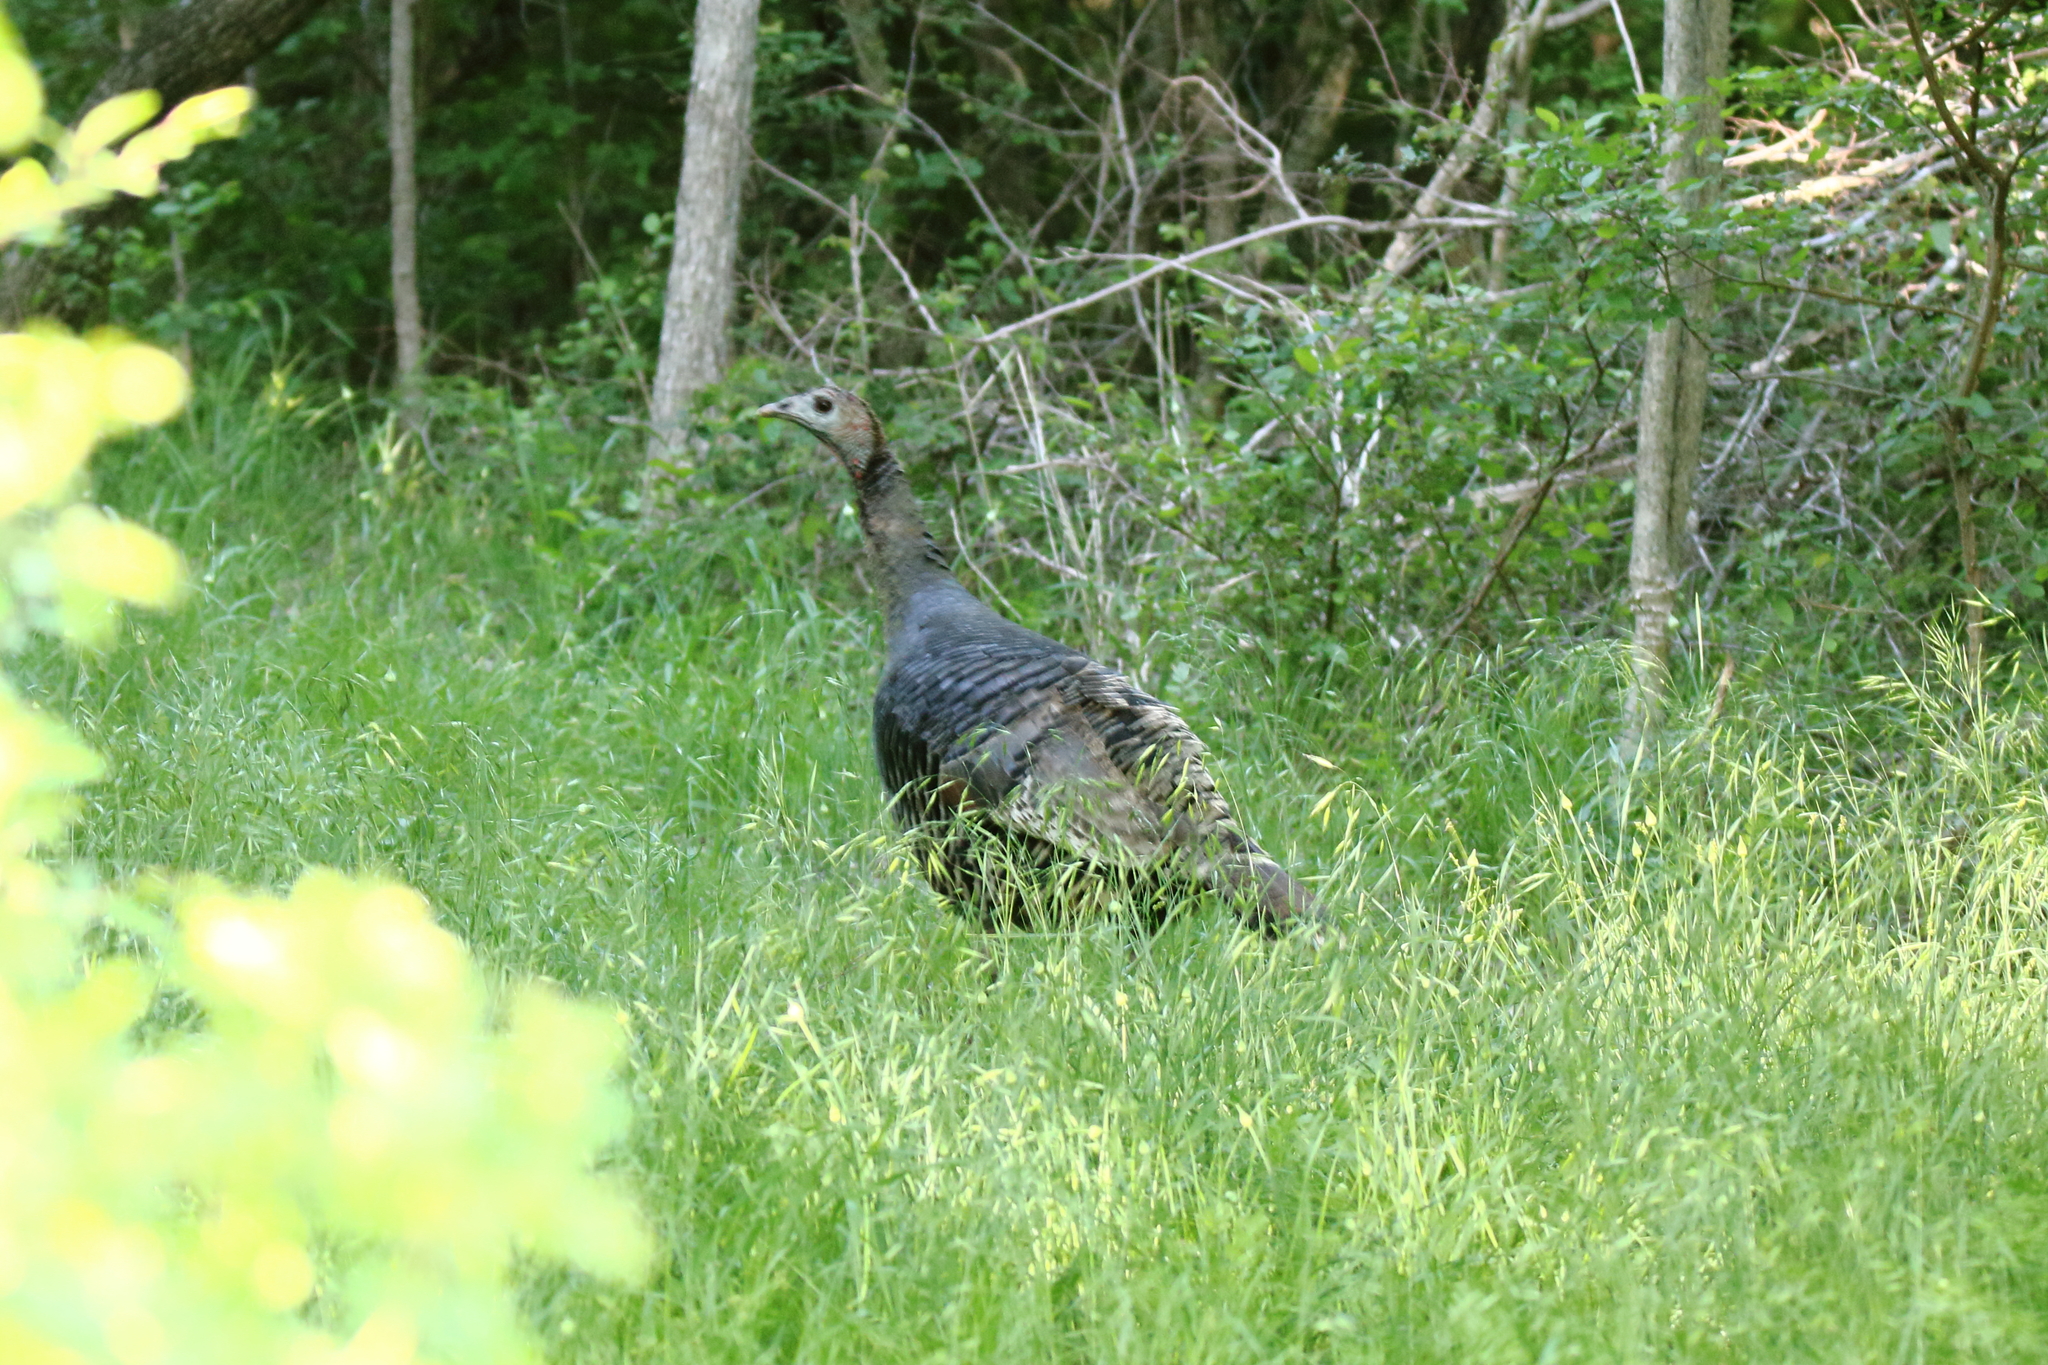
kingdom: Animalia
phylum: Chordata
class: Aves
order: Galliformes
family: Phasianidae
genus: Meleagris
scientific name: Meleagris gallopavo
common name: Wild turkey
